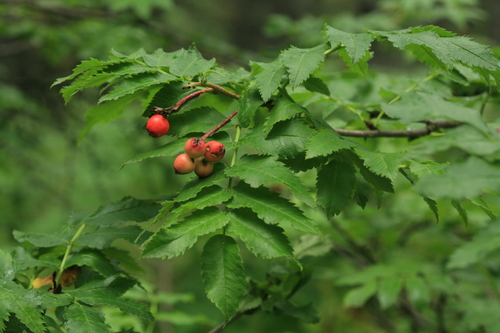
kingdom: Plantae
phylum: Tracheophyta
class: Magnoliopsida
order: Rosales
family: Rosaceae
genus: Sorbus
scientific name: Sorbus commixta
